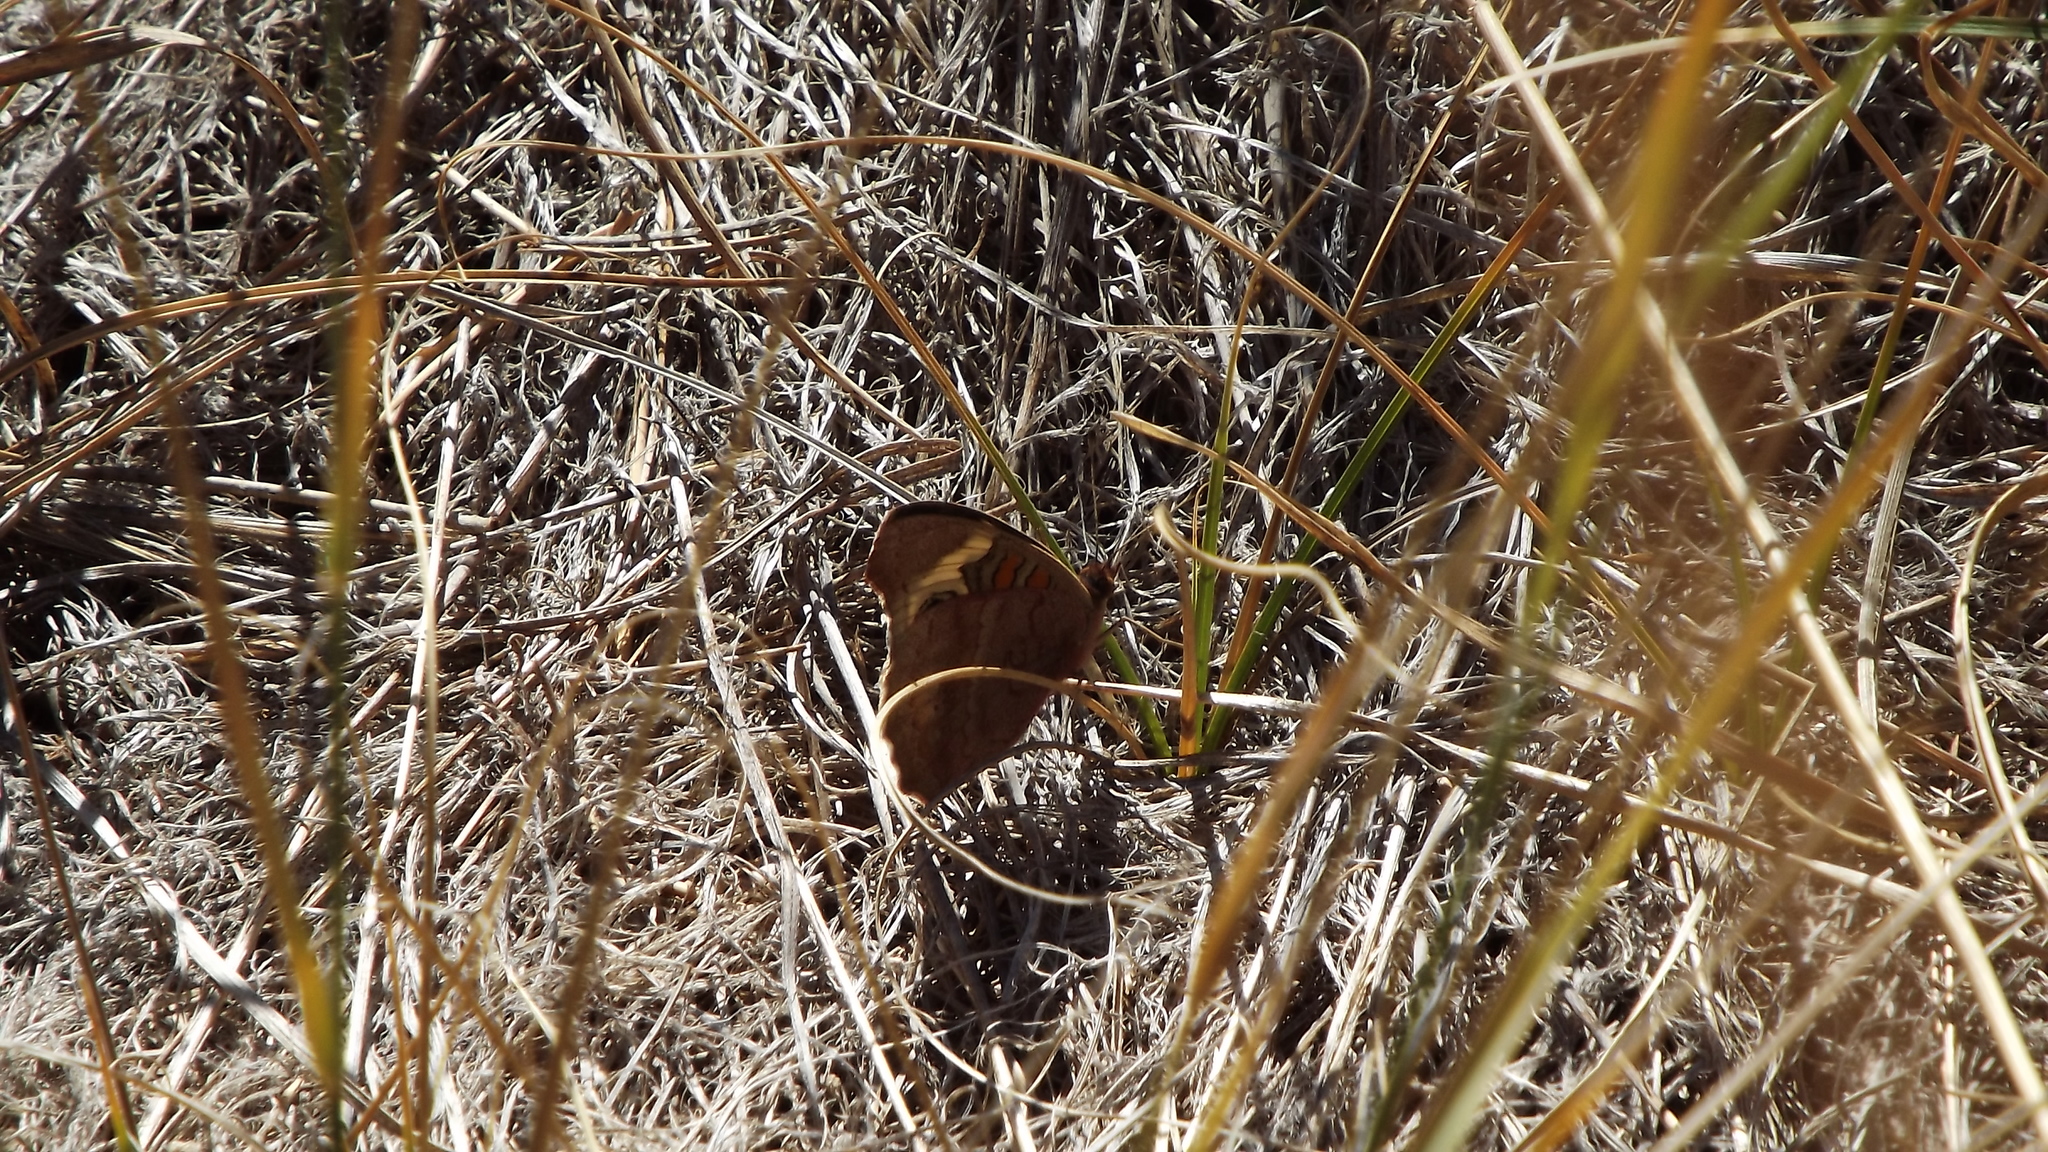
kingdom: Animalia
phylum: Arthropoda
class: Insecta
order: Lepidoptera
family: Nymphalidae
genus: Junonia
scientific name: Junonia grisea
